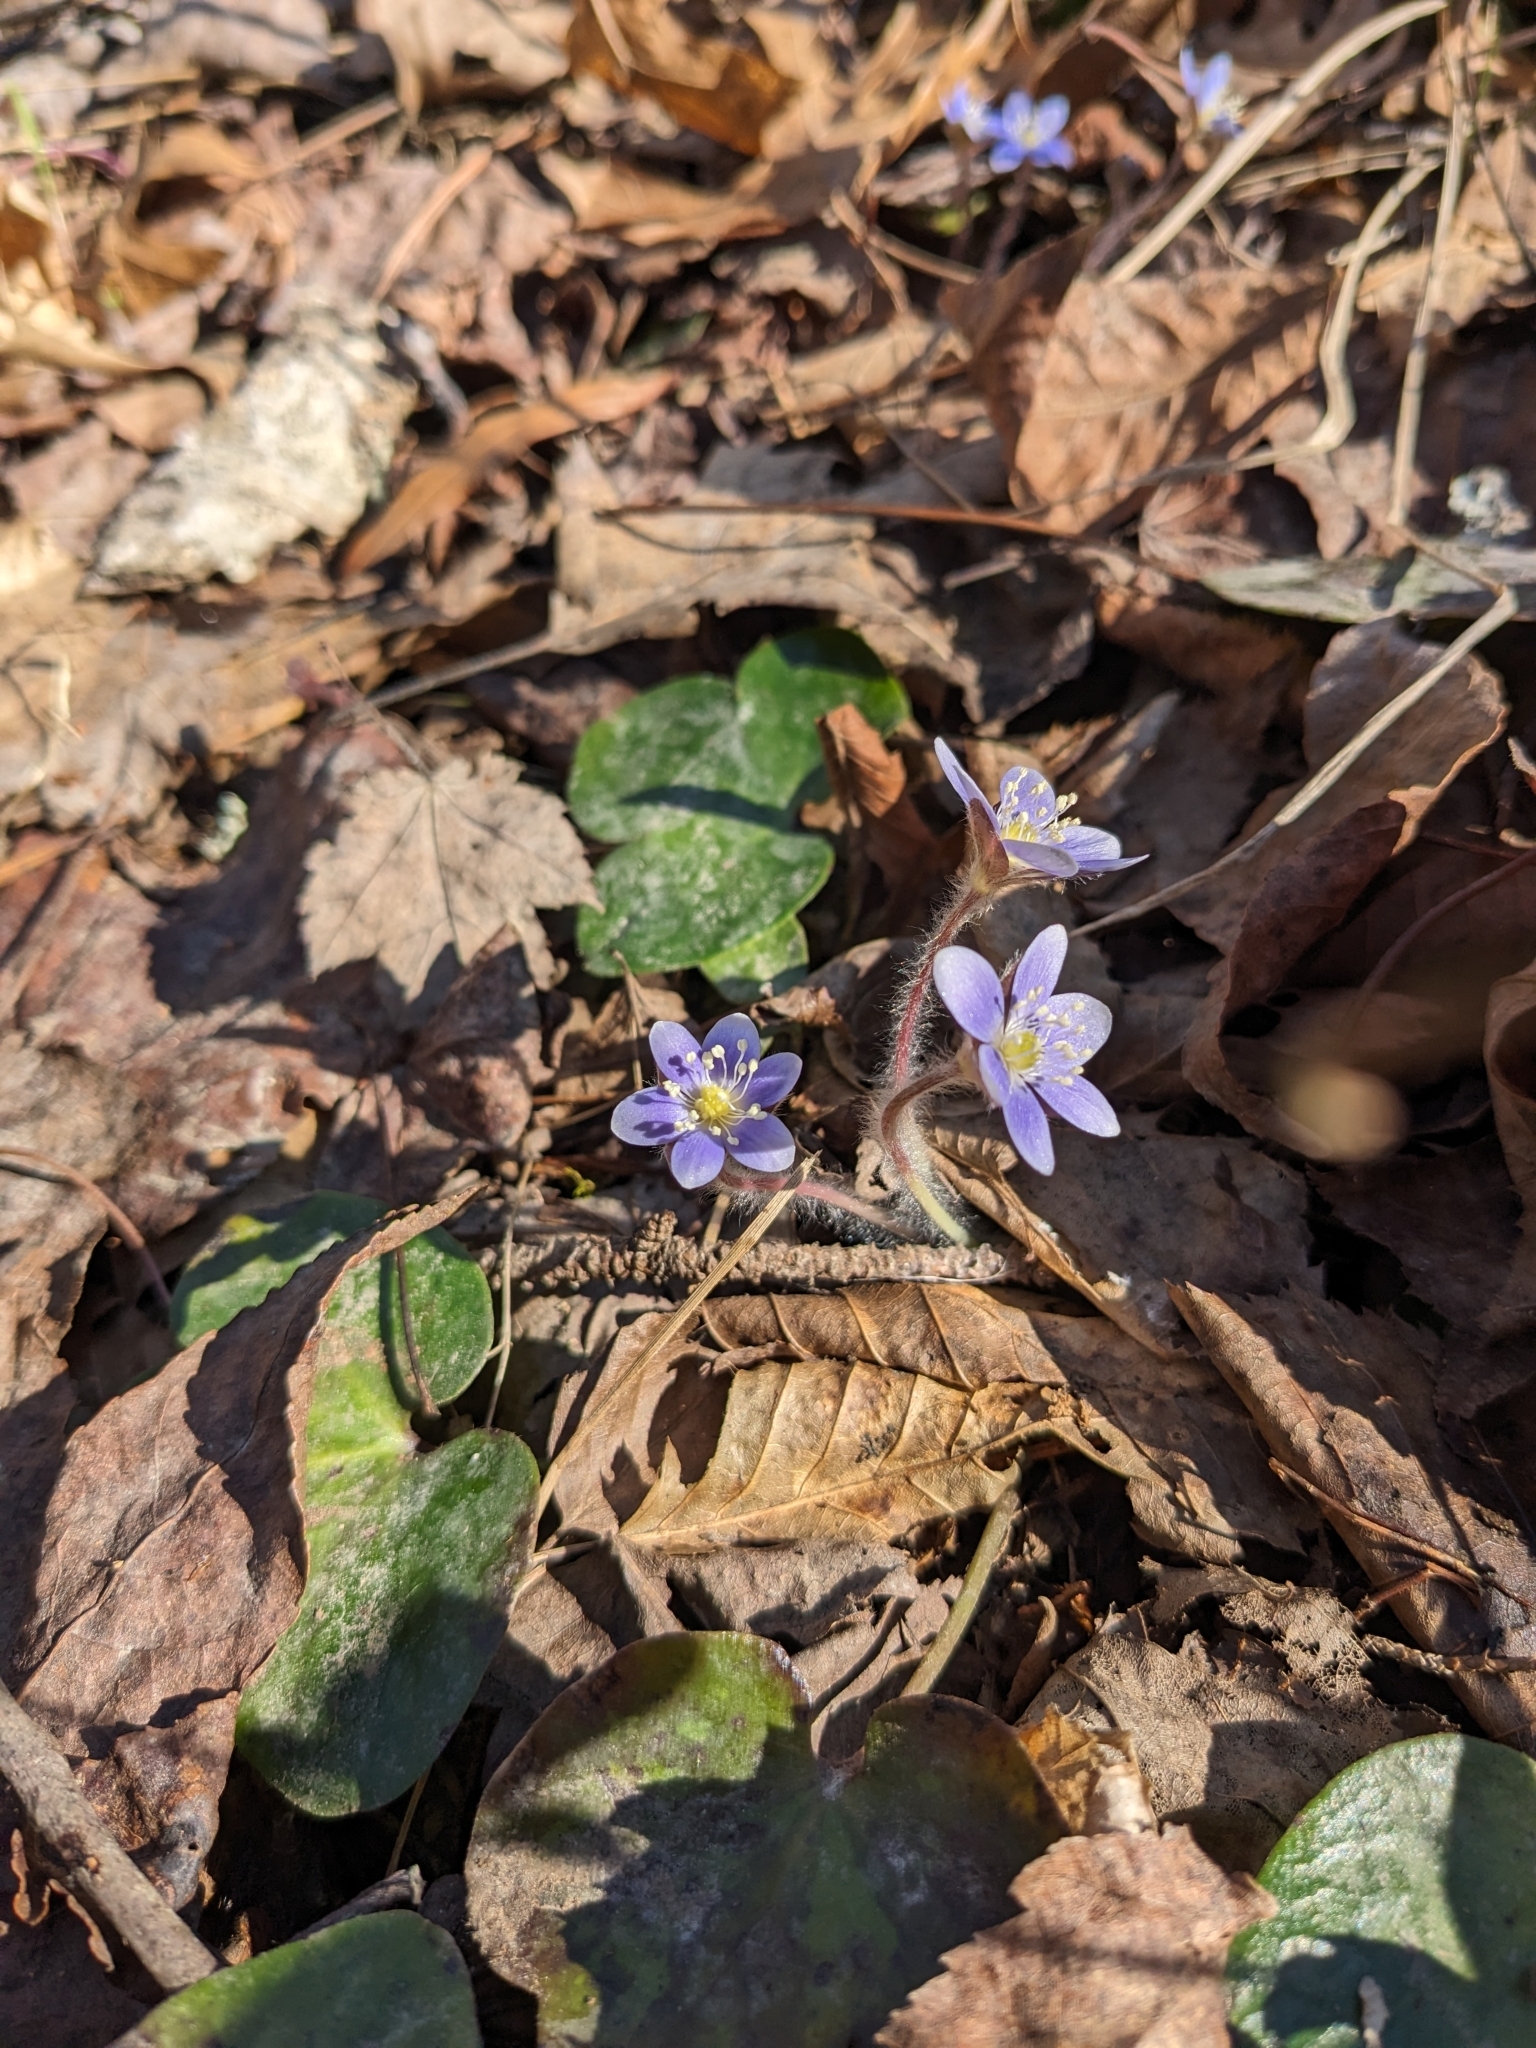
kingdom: Plantae
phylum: Tracheophyta
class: Magnoliopsida
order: Ranunculales
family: Ranunculaceae
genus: Hepatica
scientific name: Hepatica americana
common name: American hepatica
